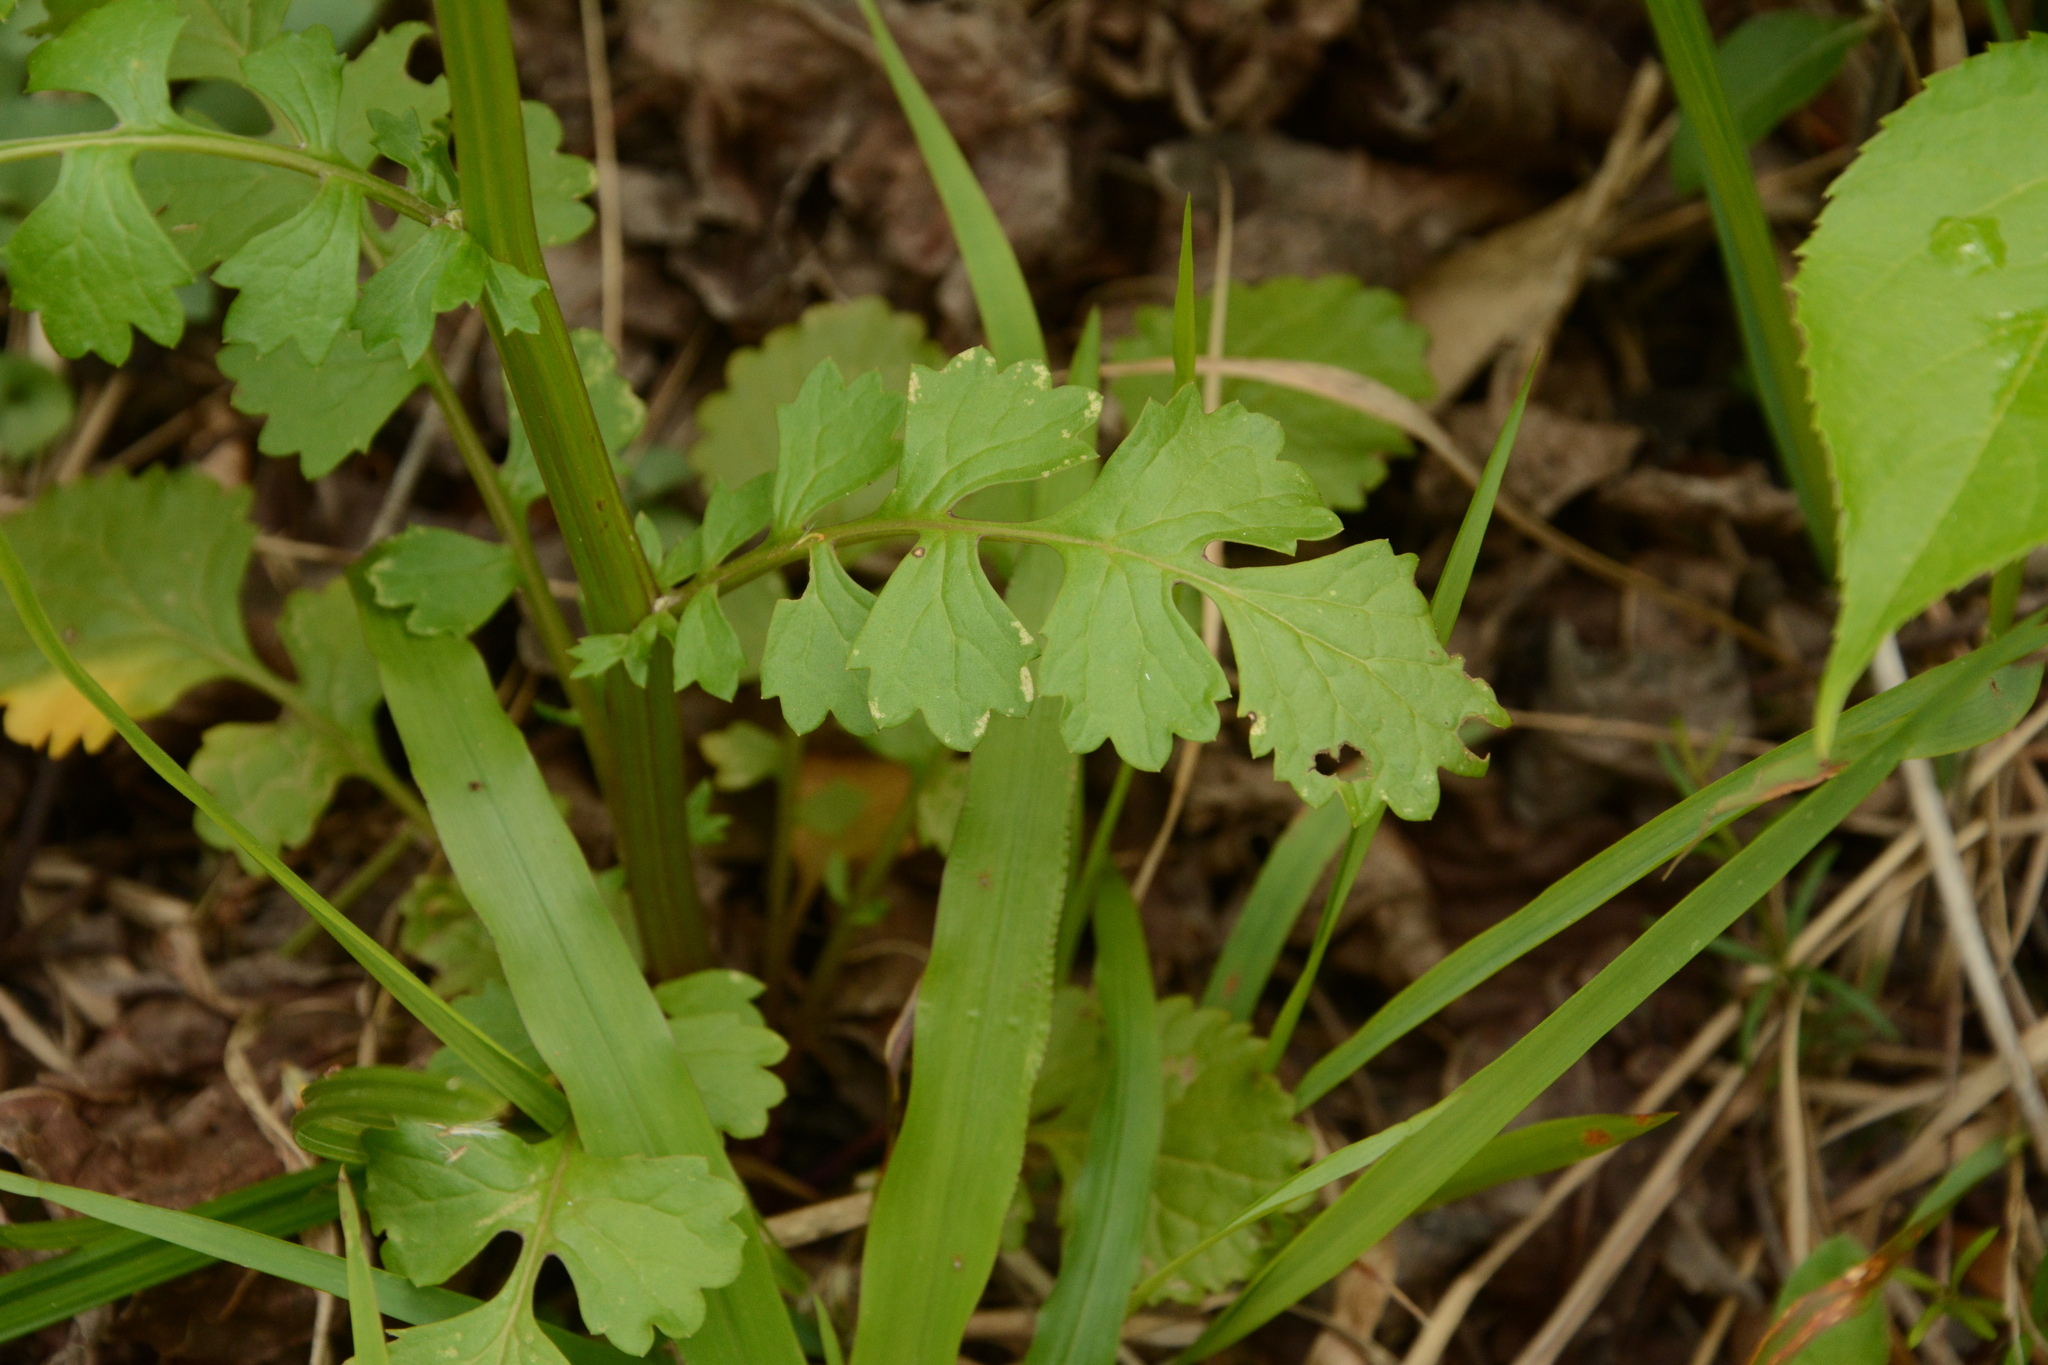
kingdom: Plantae
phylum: Tracheophyta
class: Magnoliopsida
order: Asterales
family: Asteraceae
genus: Packera
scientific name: Packera glabella
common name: Butterweed
